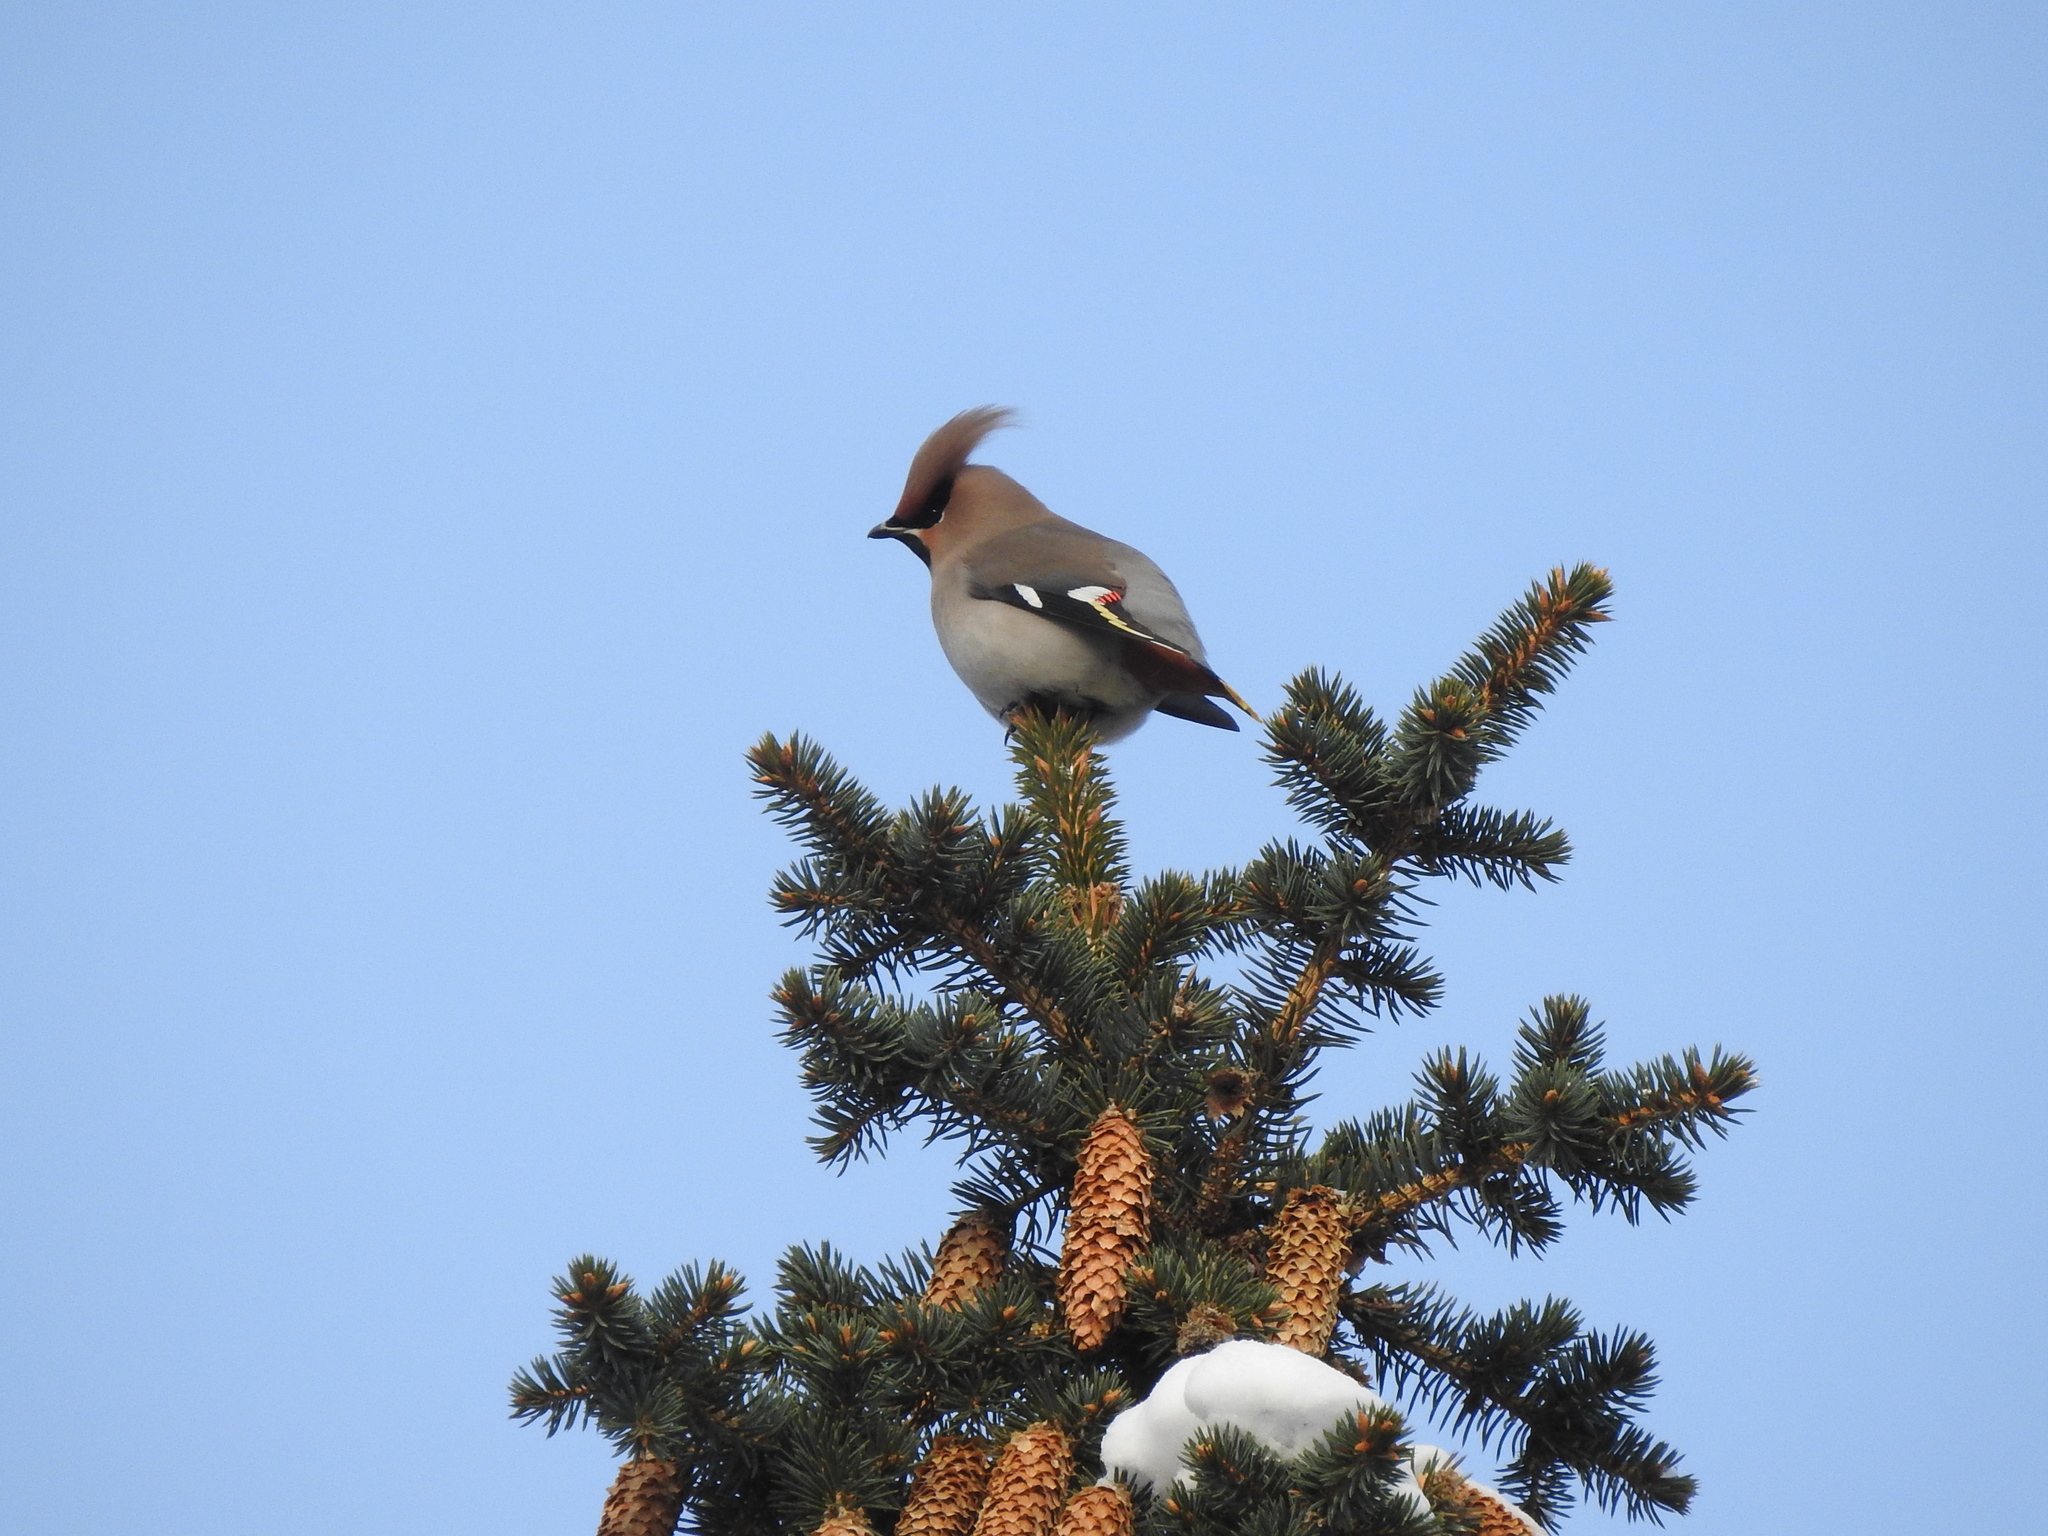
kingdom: Animalia
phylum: Chordata
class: Aves
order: Passeriformes
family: Bombycillidae
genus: Bombycilla
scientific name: Bombycilla garrulus
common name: Bohemian waxwing
